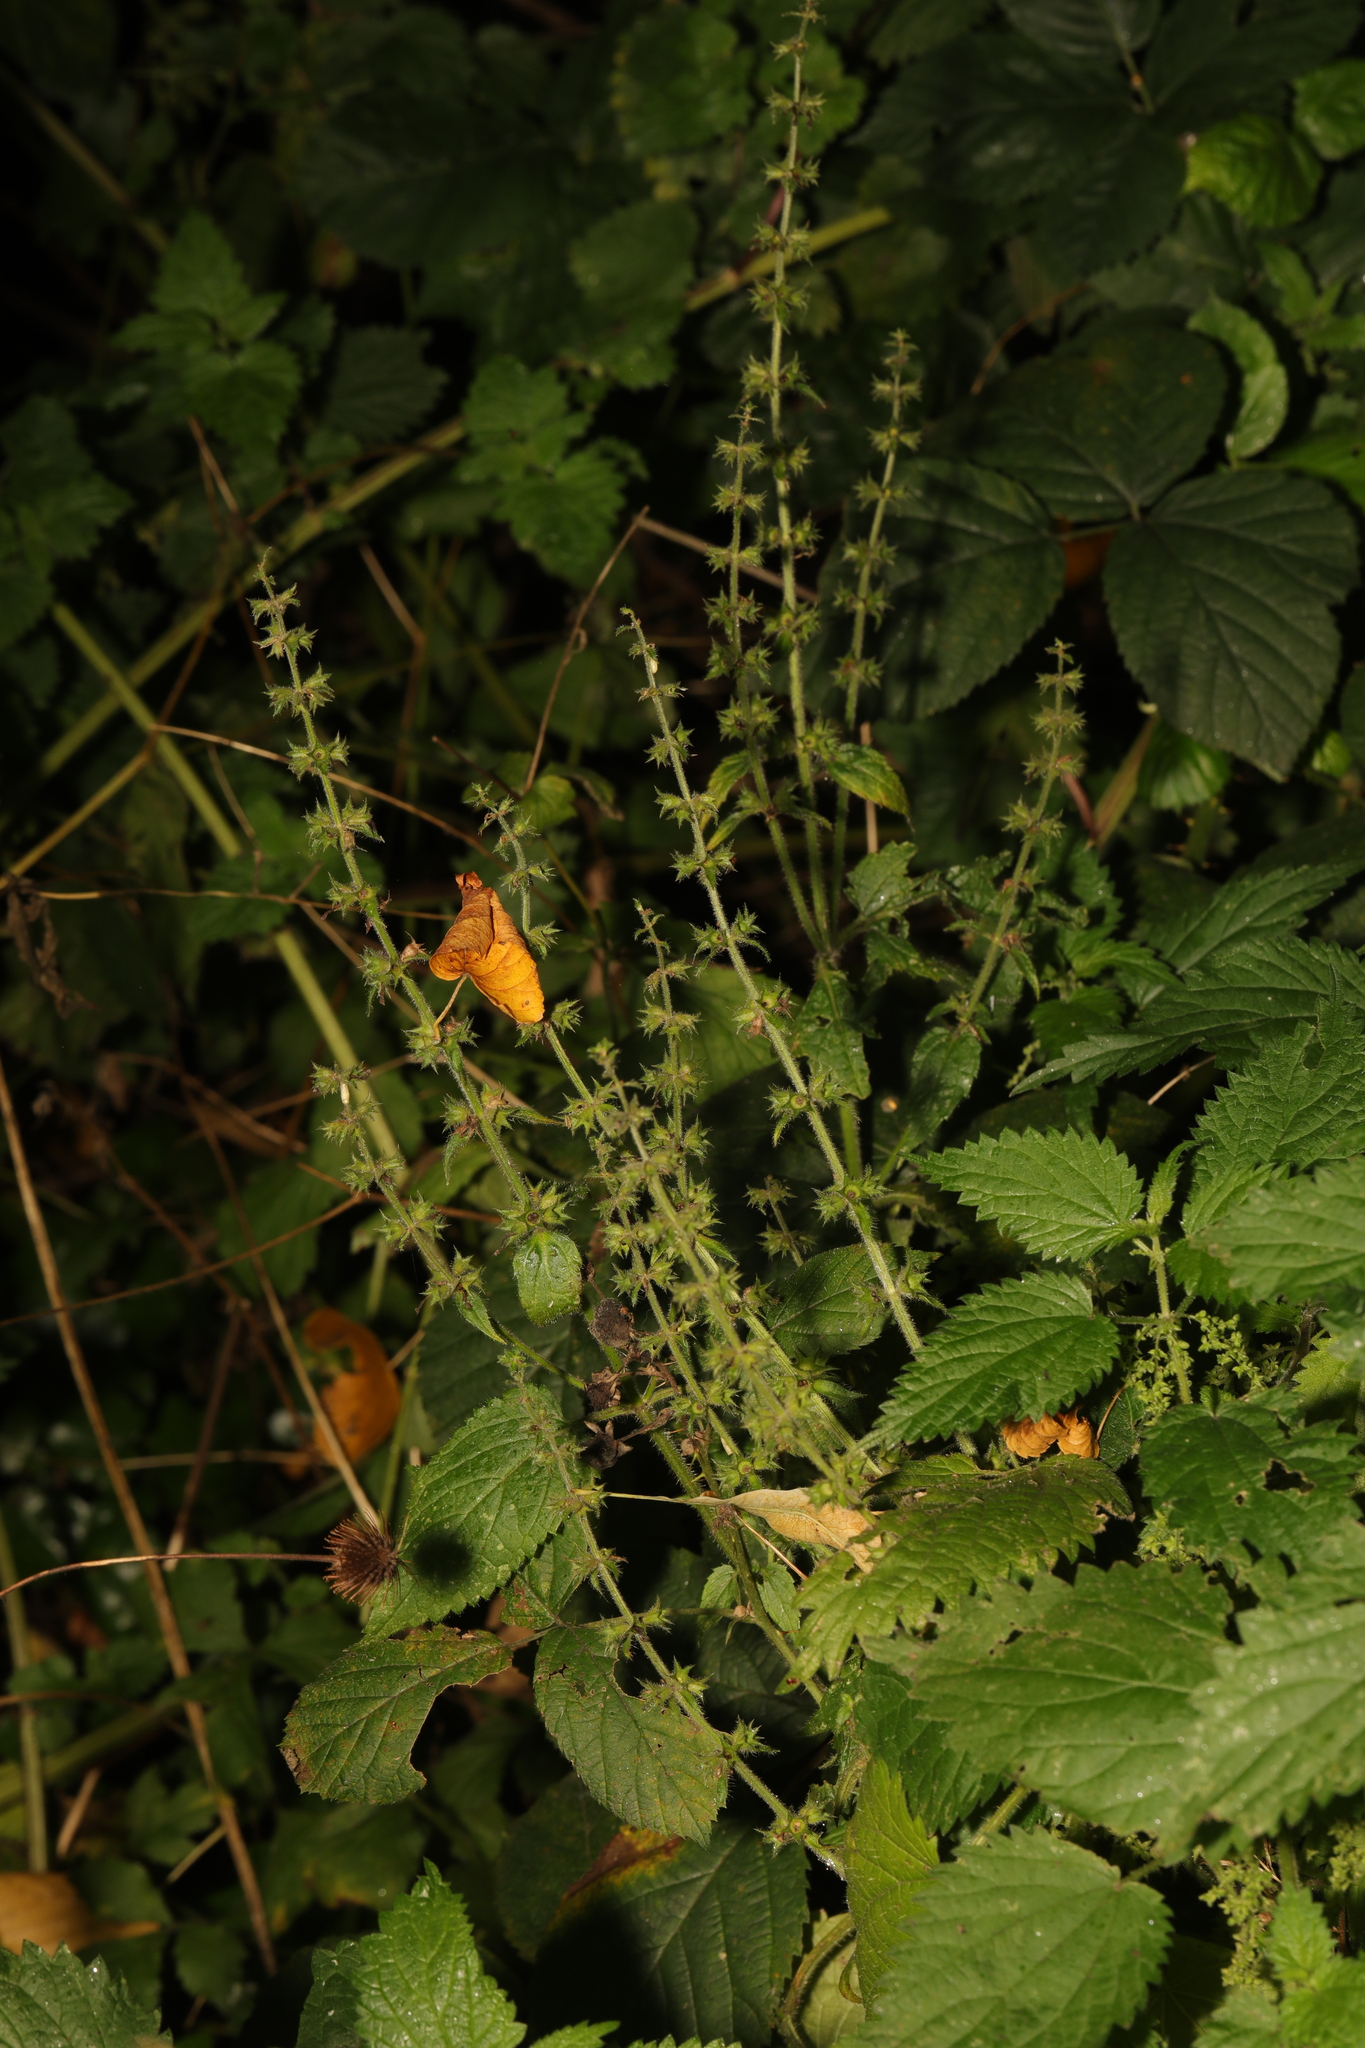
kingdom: Plantae
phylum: Tracheophyta
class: Magnoliopsida
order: Lamiales
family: Lamiaceae
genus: Stachys
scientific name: Stachys sylvatica
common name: Hedge woundwort
